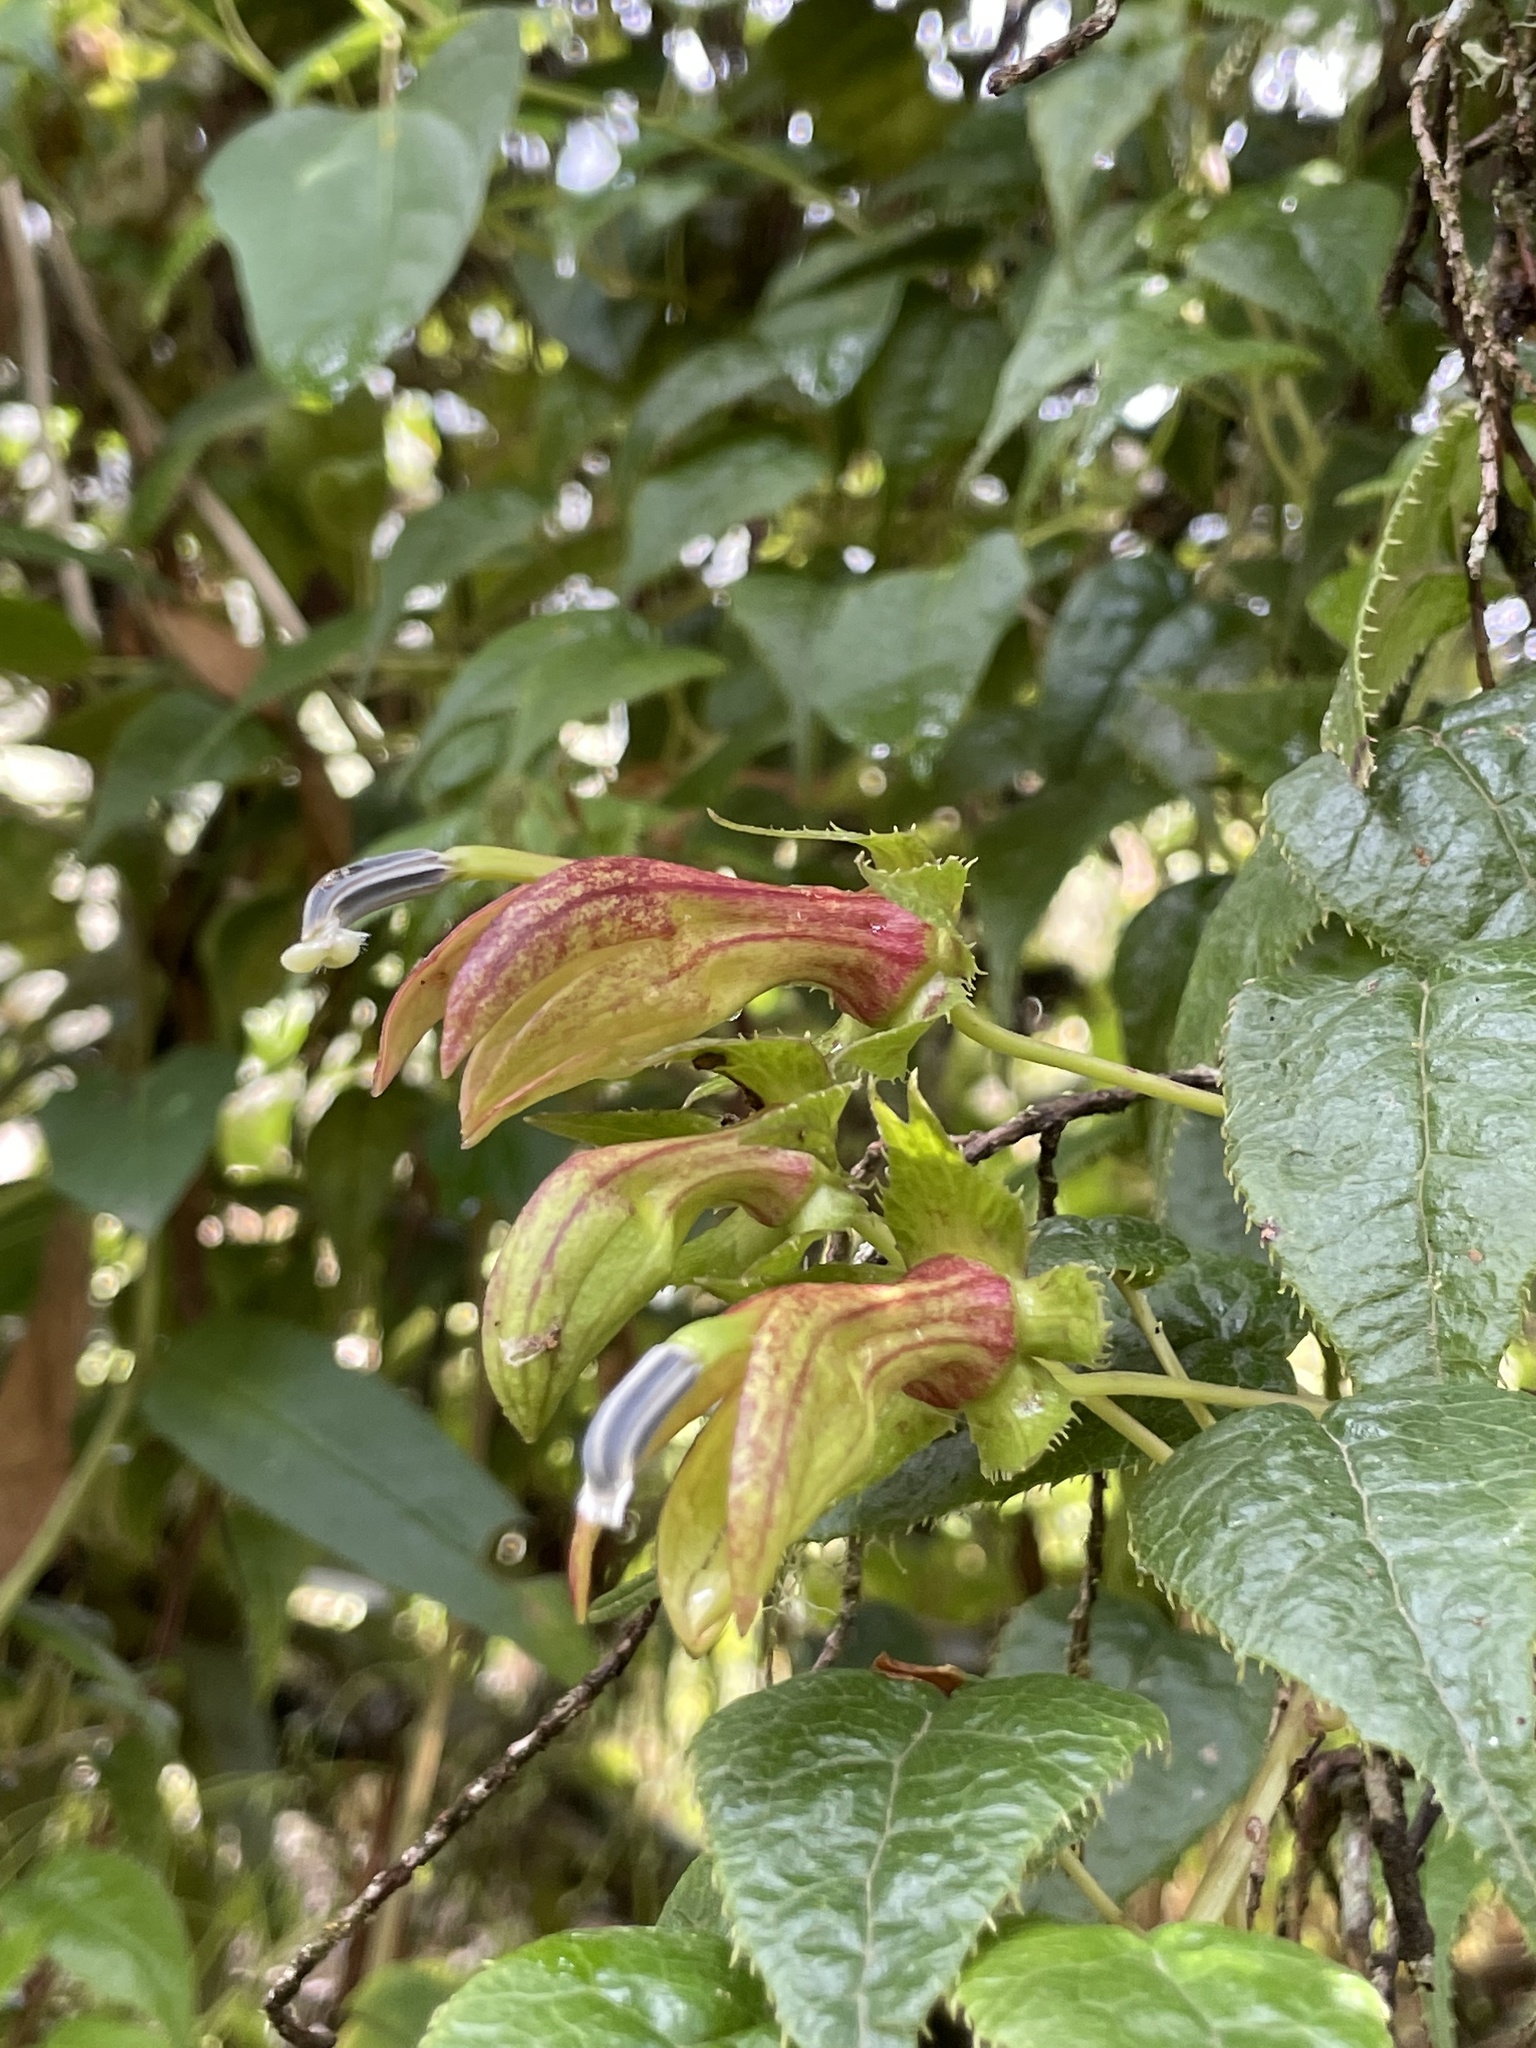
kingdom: Plantae
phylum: Tracheophyta
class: Magnoliopsida
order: Asterales
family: Campanulaceae
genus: Siphocampylus
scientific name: Siphocampylus ecuadoriensis
